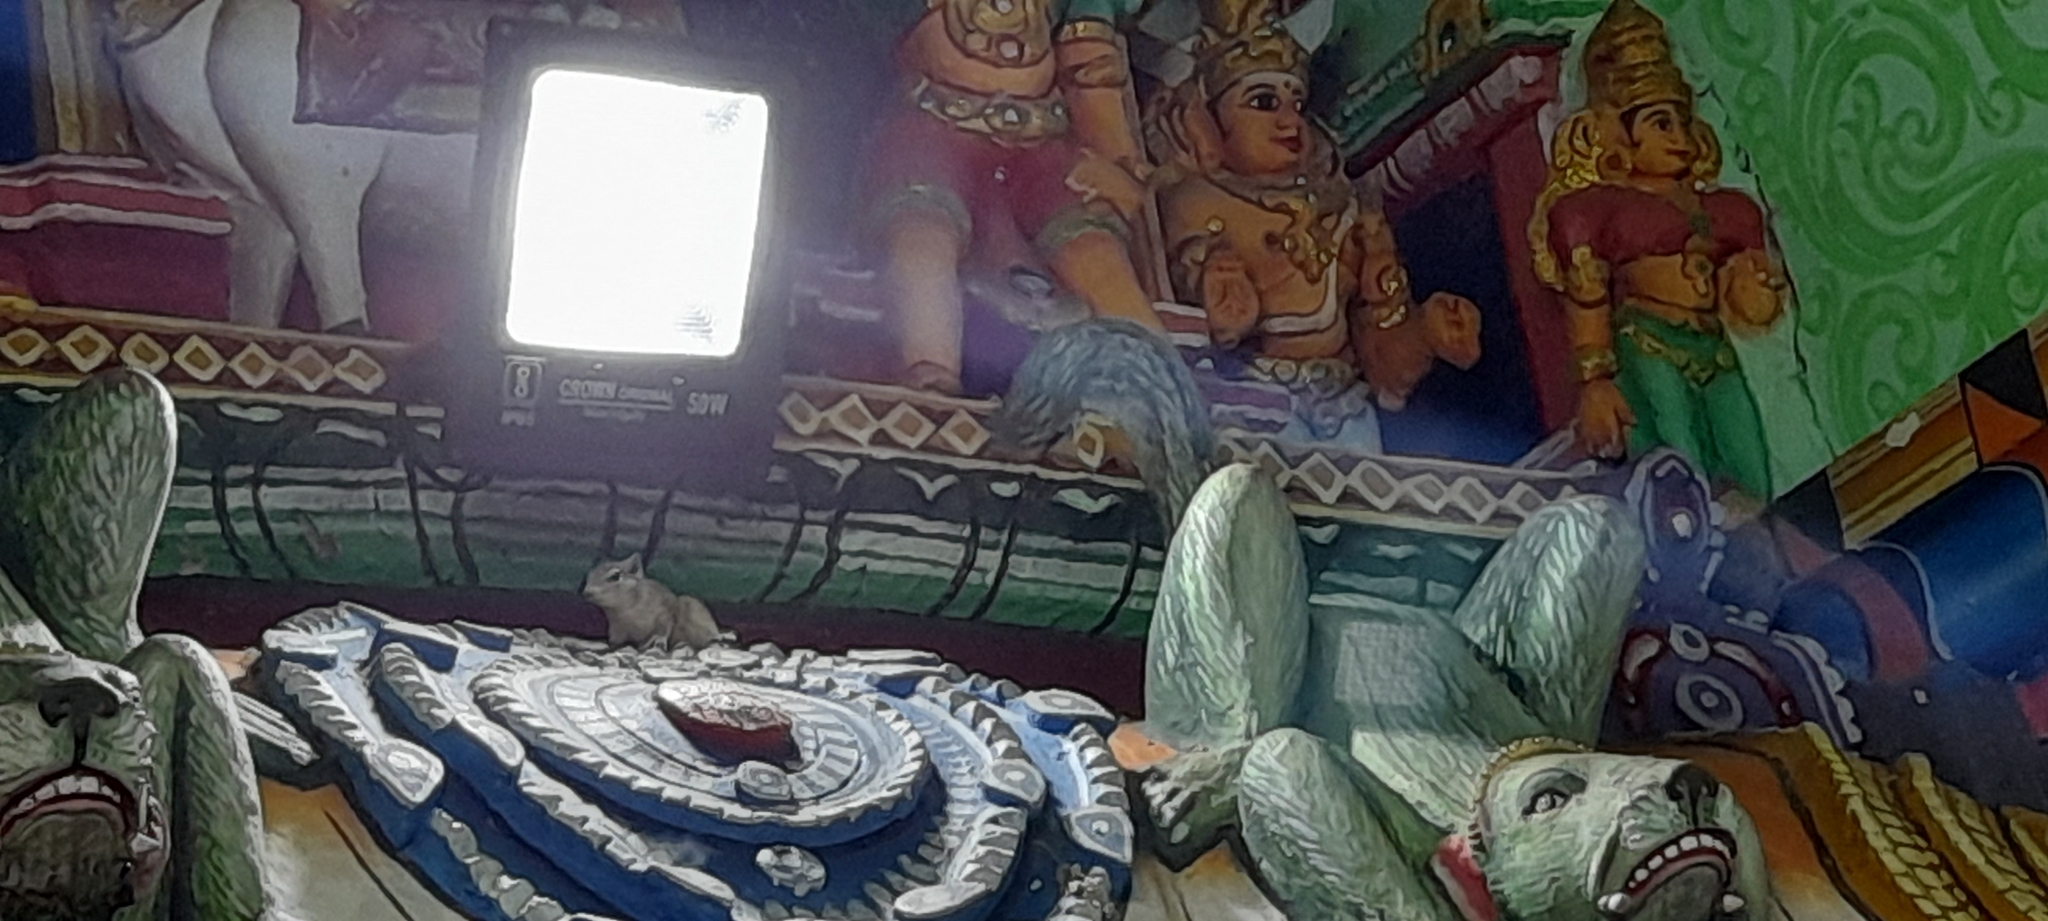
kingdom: Animalia
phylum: Chordata
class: Mammalia
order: Rodentia
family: Sciuridae
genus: Funambulus
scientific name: Funambulus palmarum
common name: Indian palm squirrel
